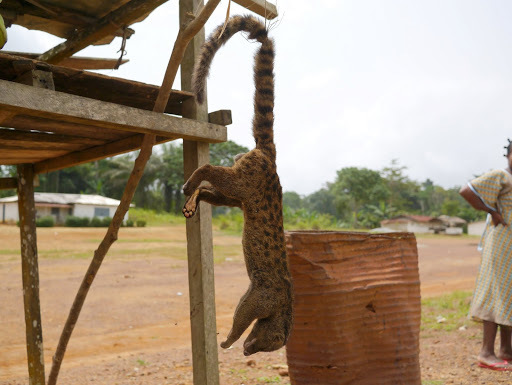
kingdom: Animalia
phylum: Chordata
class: Mammalia
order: Carnivora
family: Nandiniidae
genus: Nandinia
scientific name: Nandinia binotata
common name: African palm civet
